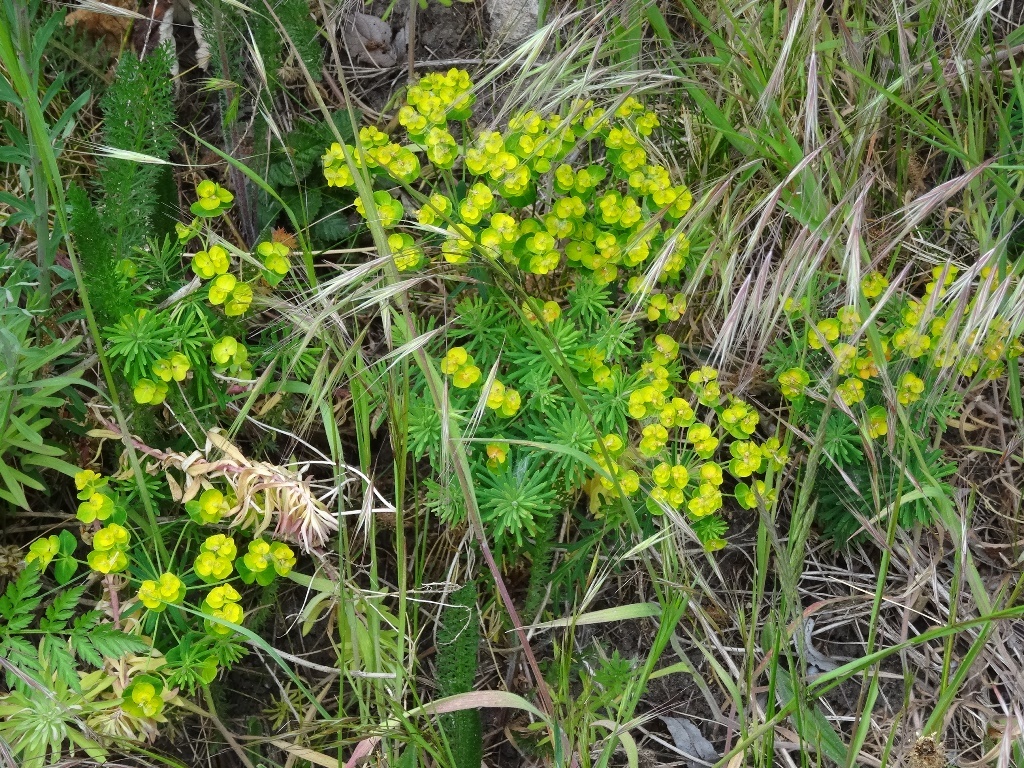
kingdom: Plantae
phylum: Tracheophyta
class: Magnoliopsida
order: Malpighiales
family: Euphorbiaceae
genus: Euphorbia
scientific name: Euphorbia cyparissias
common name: Cypress spurge
